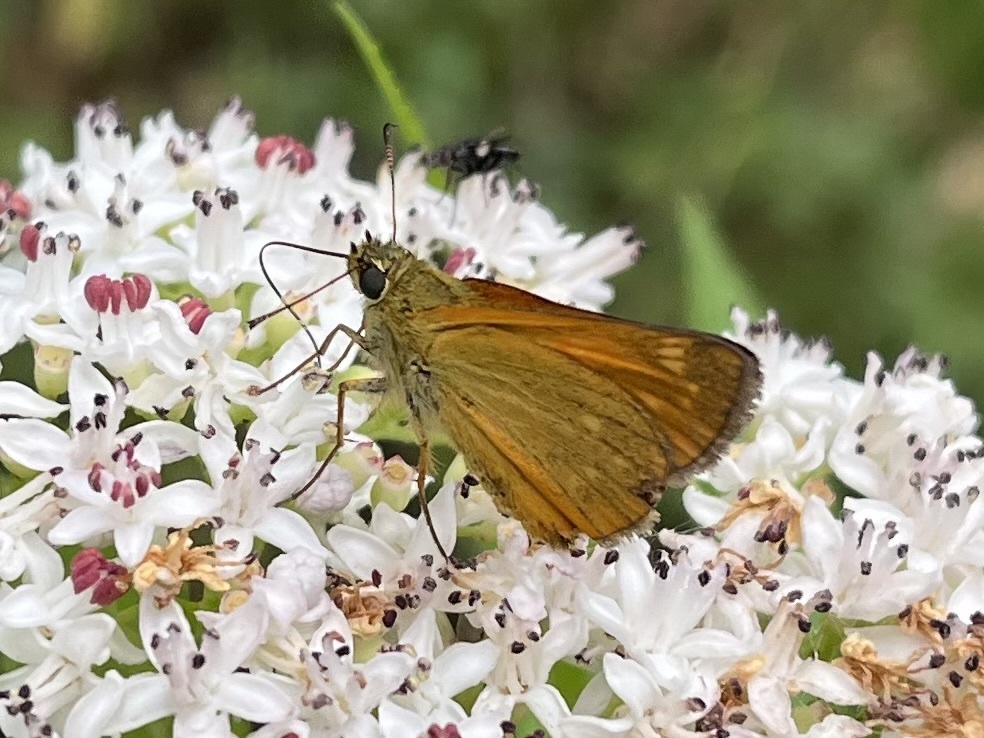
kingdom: Animalia
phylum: Arthropoda
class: Insecta
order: Lepidoptera
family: Hesperiidae
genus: Ochlodes
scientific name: Ochlodes venata
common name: Large skipper
